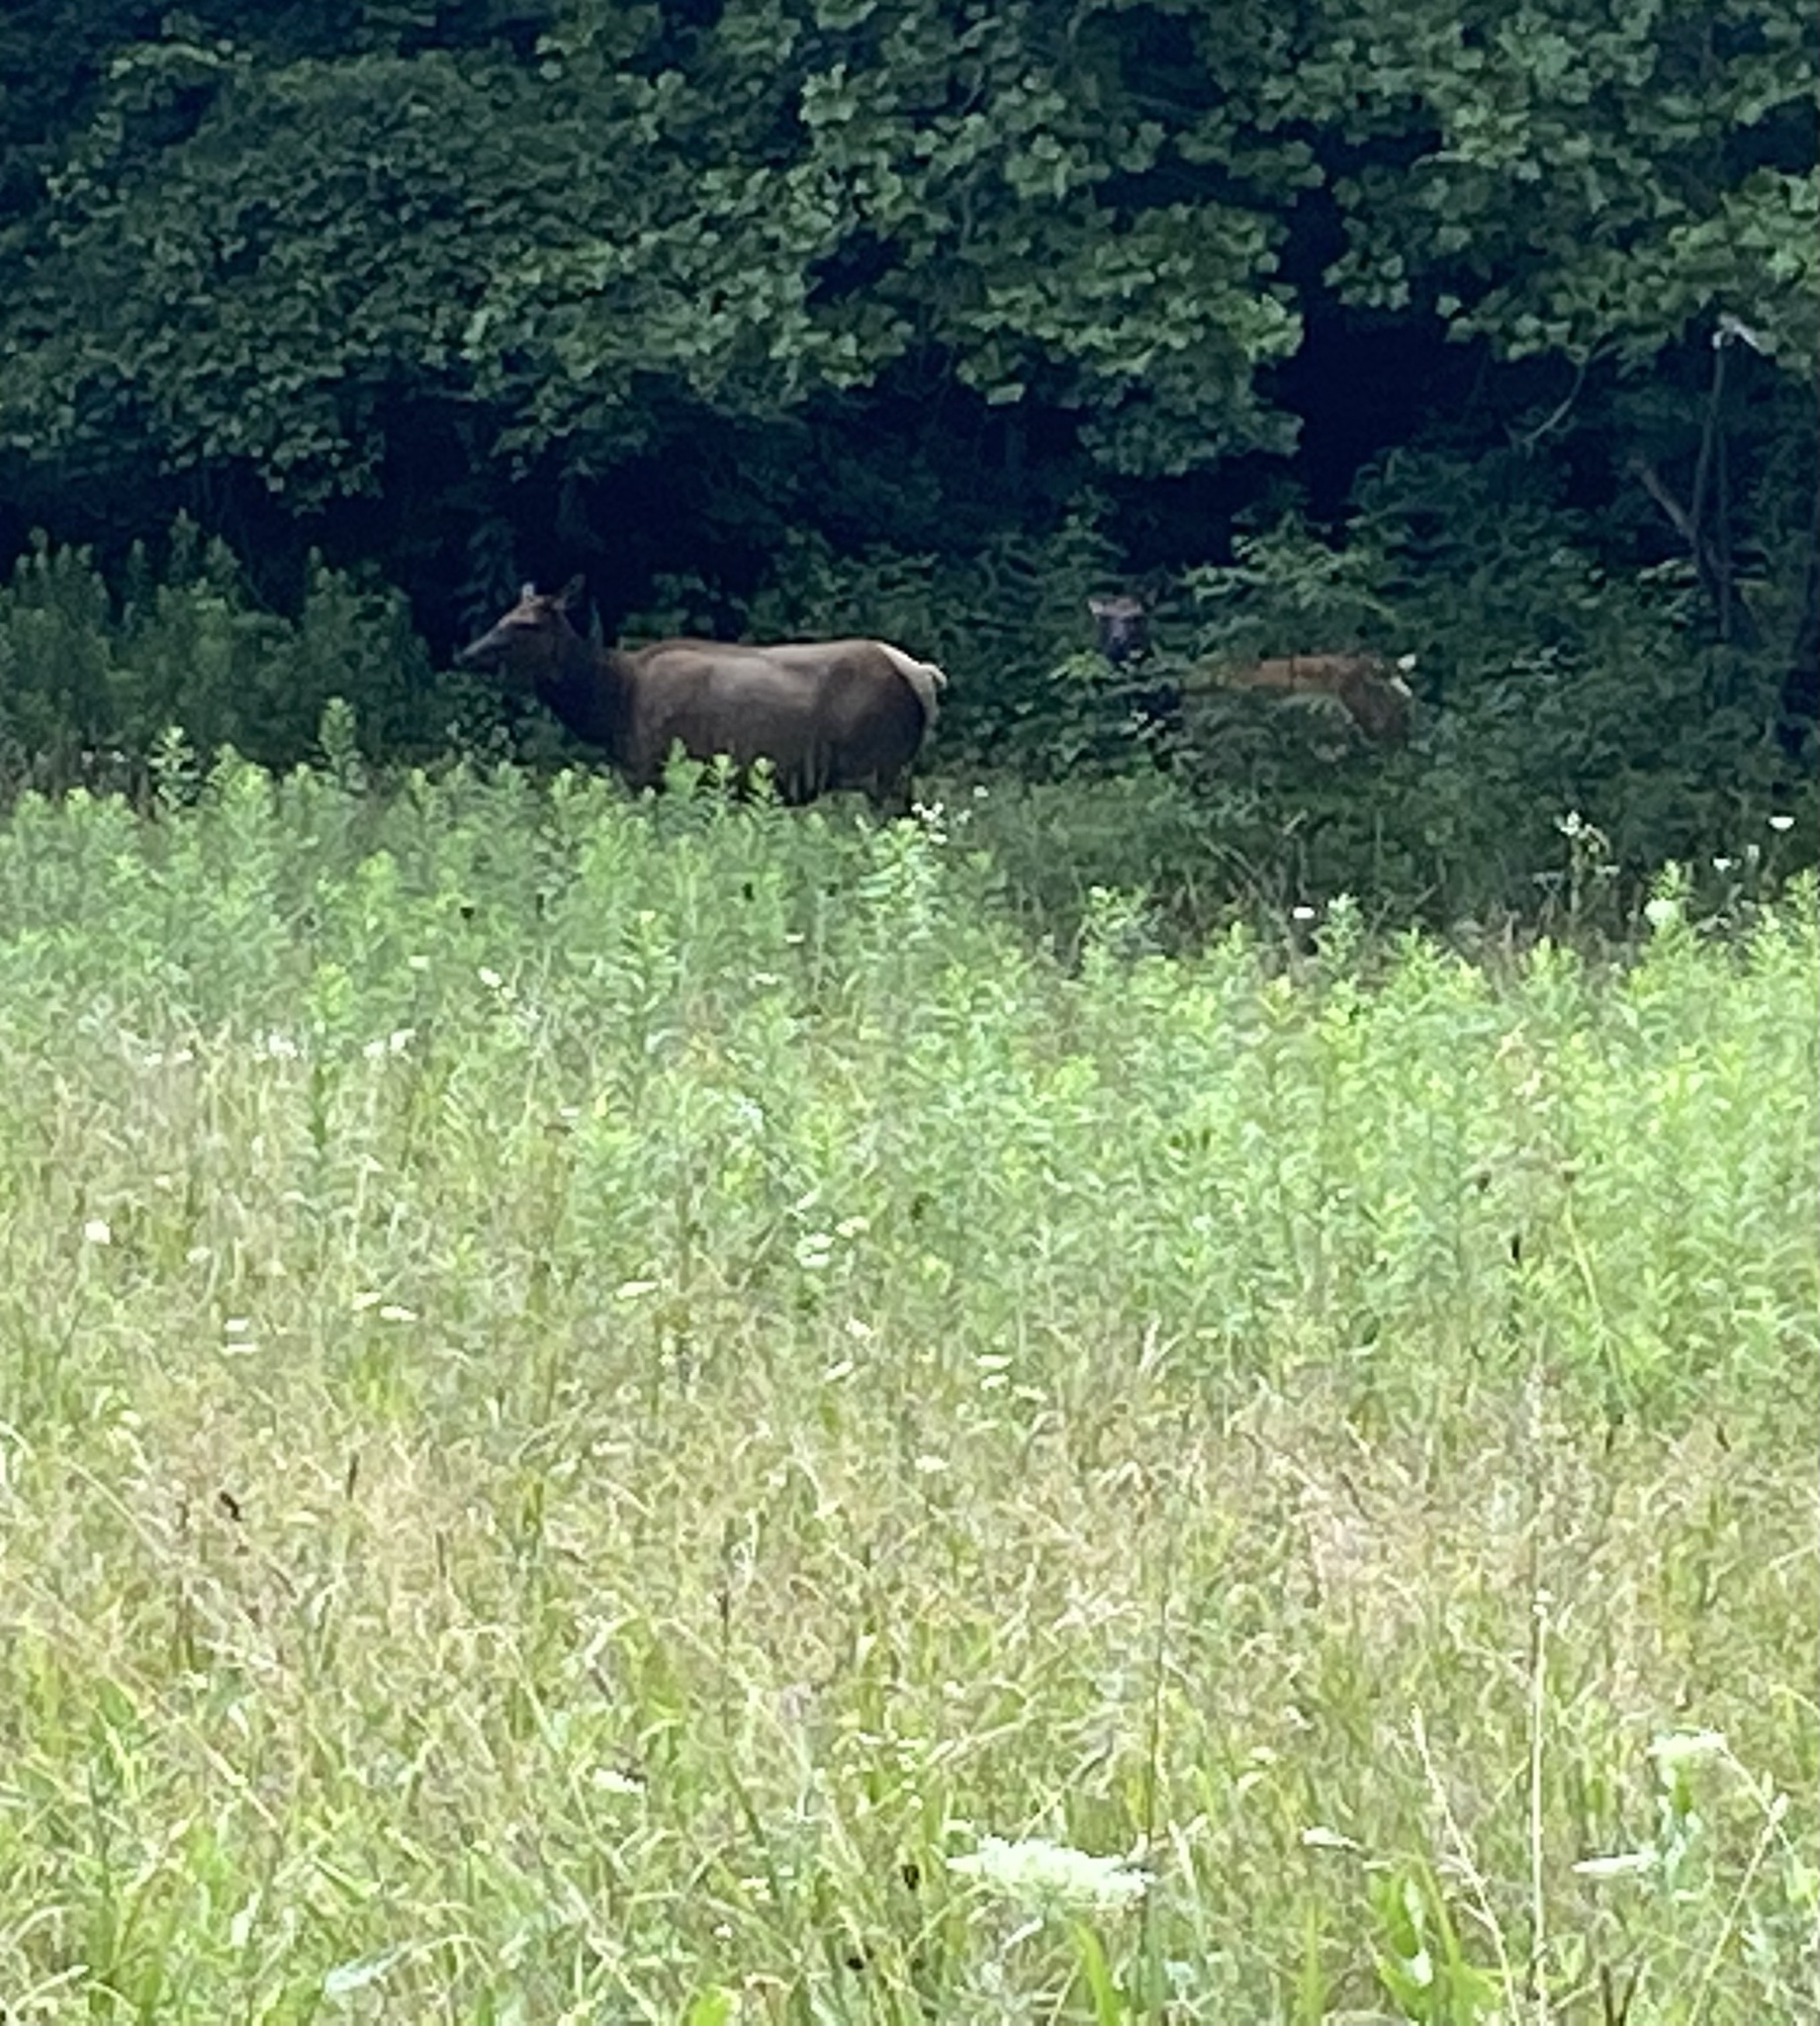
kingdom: Animalia
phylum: Chordata
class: Mammalia
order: Artiodactyla
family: Cervidae
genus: Cervus
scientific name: Cervus elaphus
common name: Red deer
